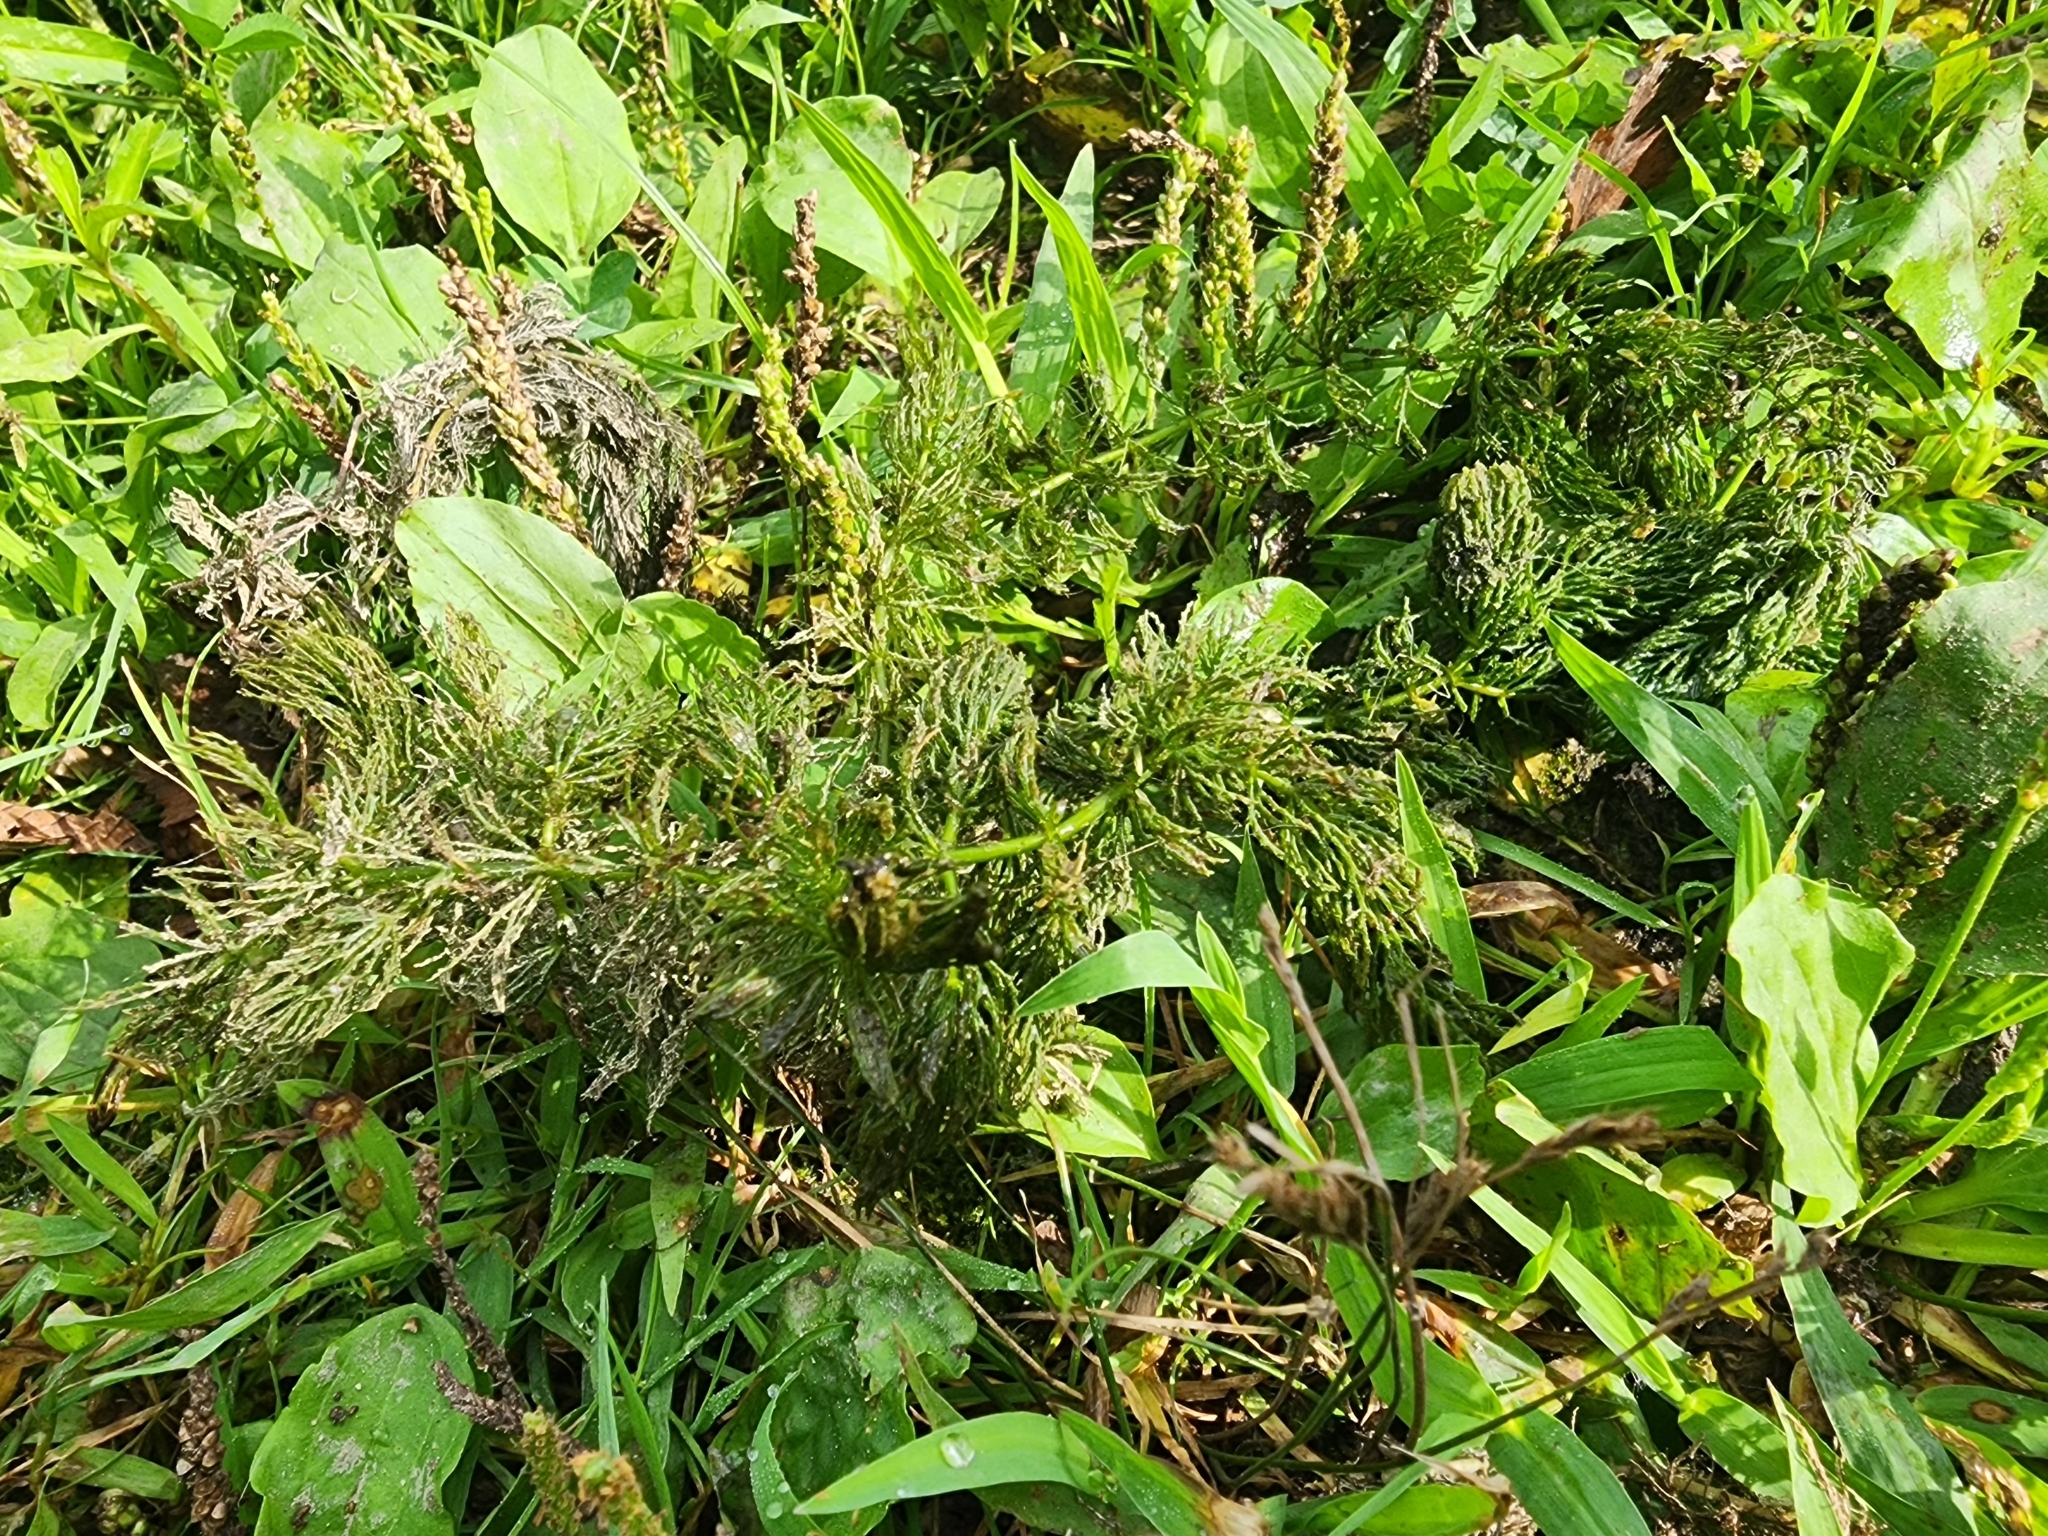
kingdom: Plantae
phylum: Tracheophyta
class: Magnoliopsida
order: Ceratophyllales
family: Ceratophyllaceae
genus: Ceratophyllum
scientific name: Ceratophyllum demersum
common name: Rigid hornwort
